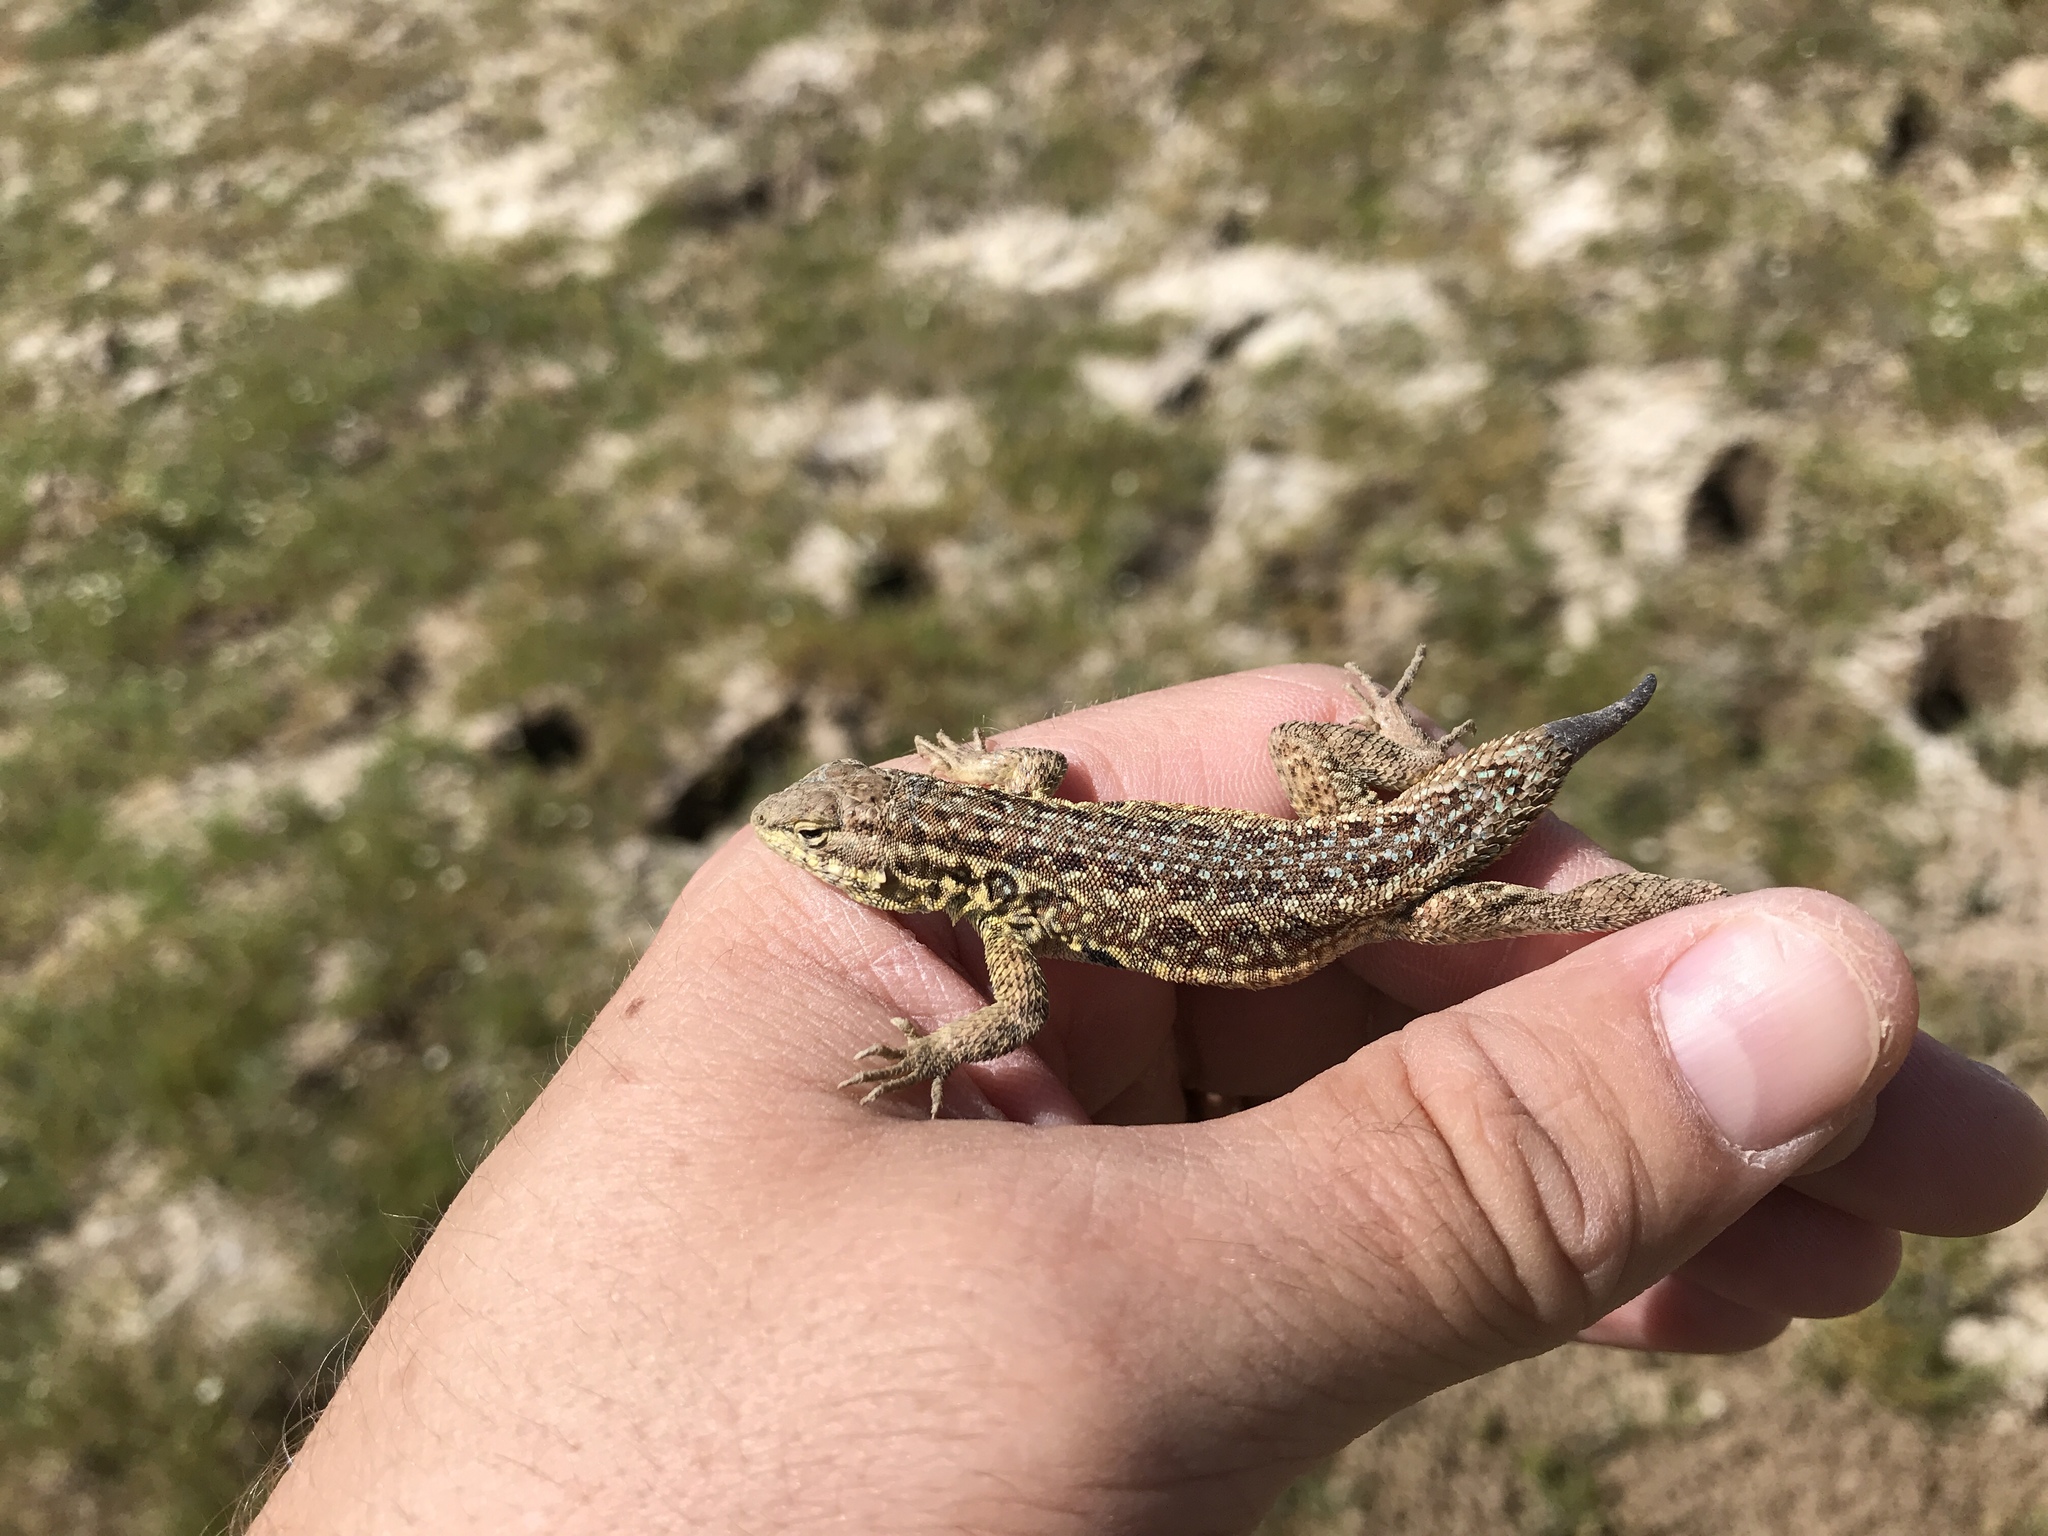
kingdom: Animalia
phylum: Chordata
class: Squamata
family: Phrynosomatidae
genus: Uta
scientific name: Uta stansburiana
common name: Side-blotched lizard
